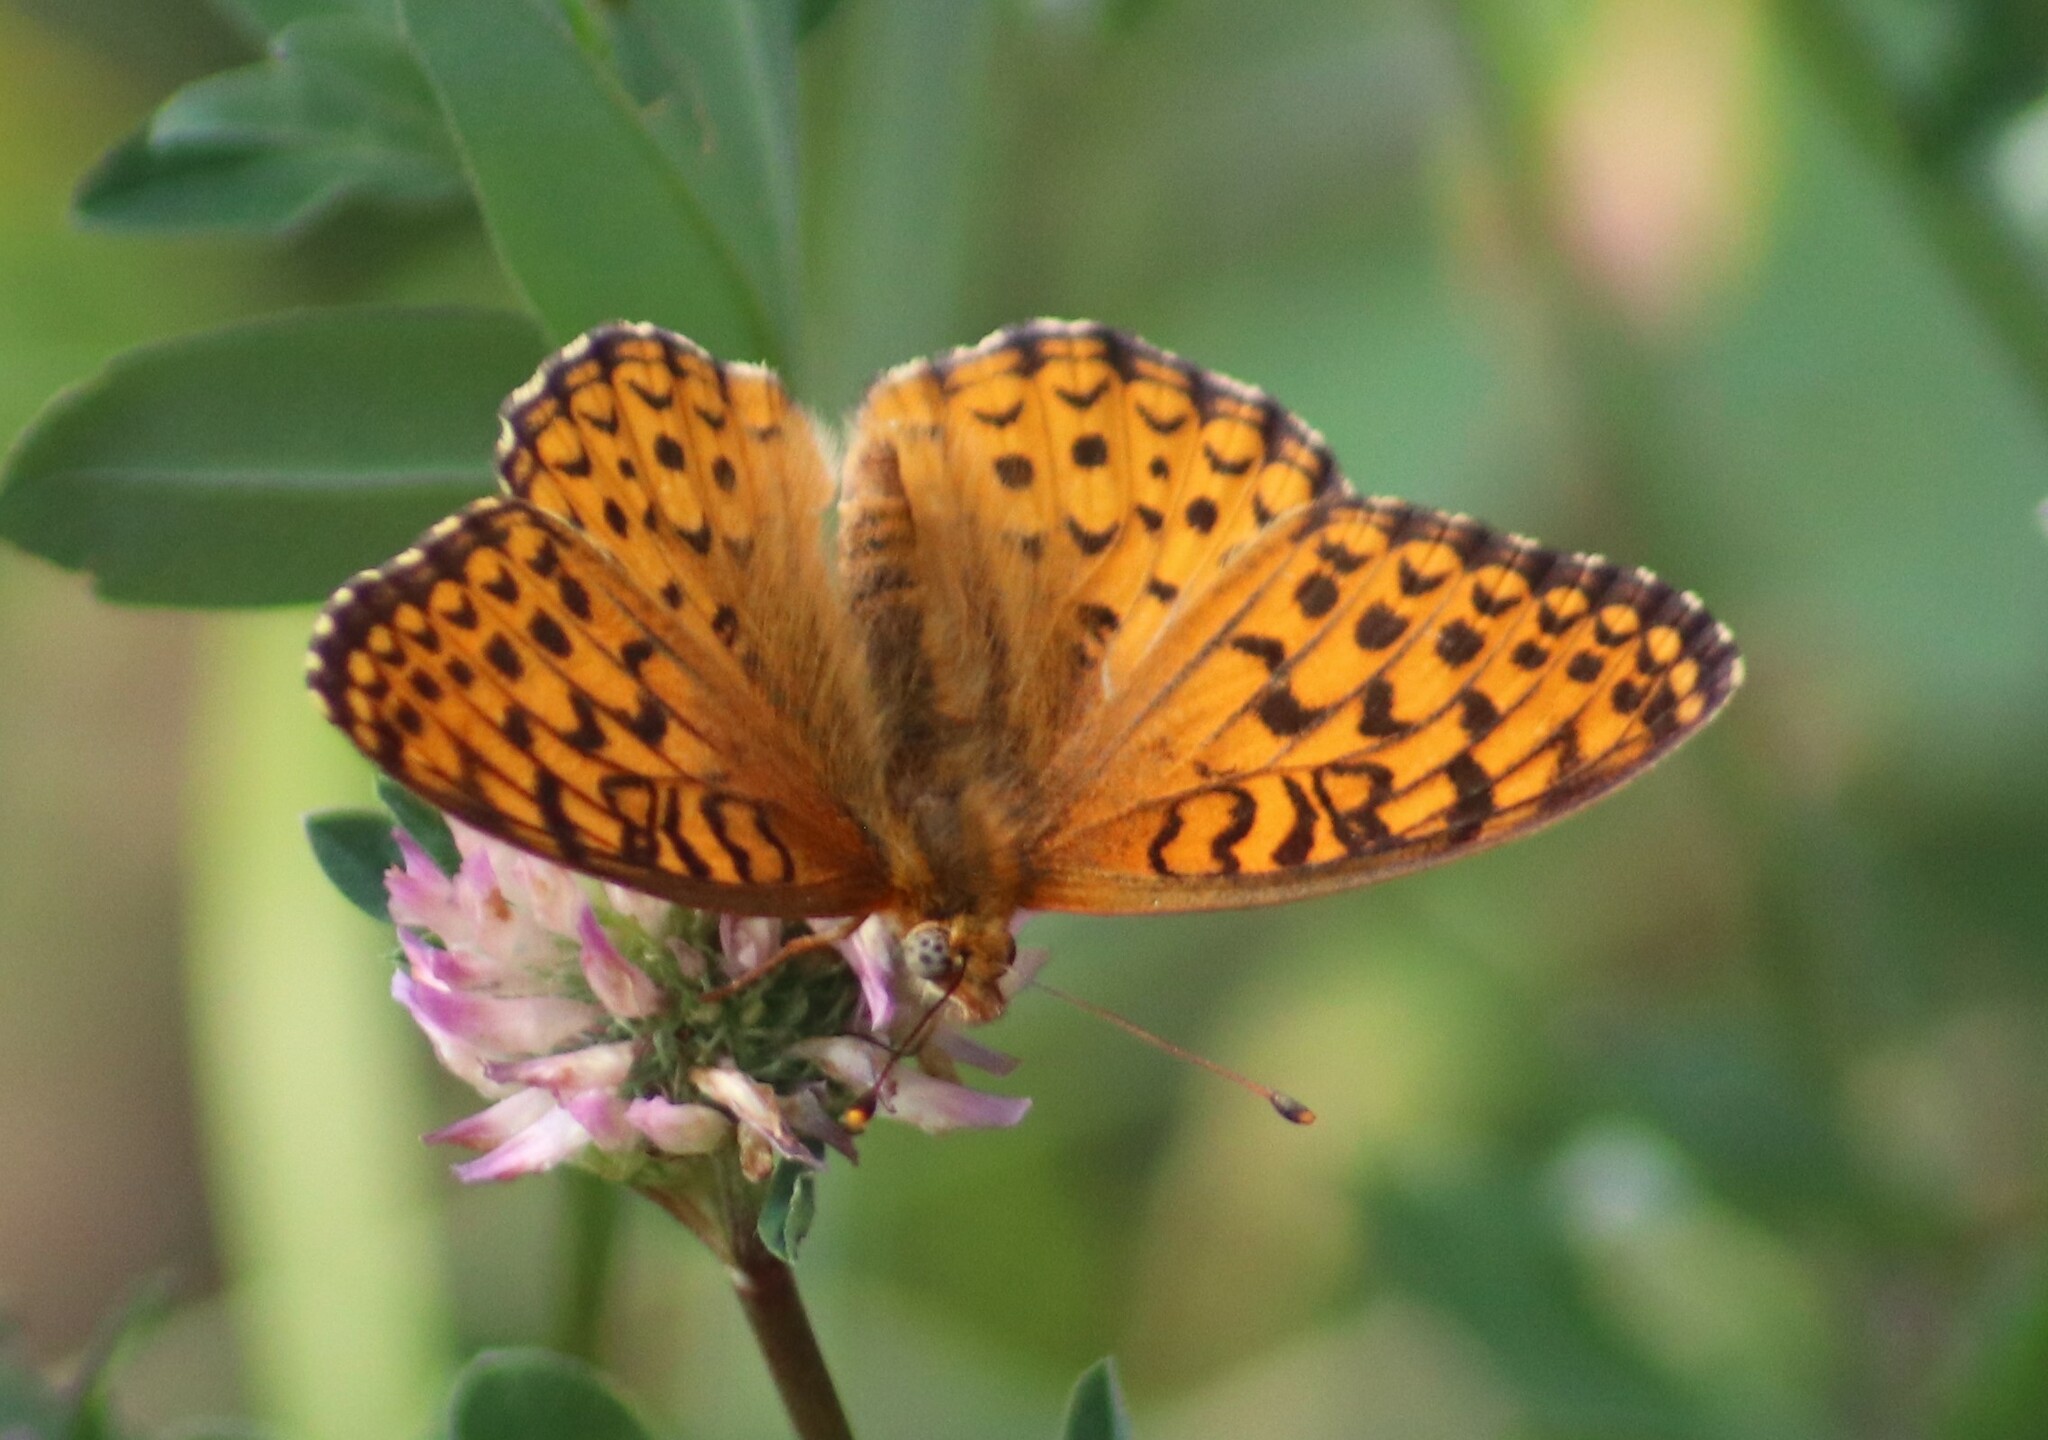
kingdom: Animalia
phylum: Arthropoda
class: Insecta
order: Lepidoptera
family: Nymphalidae
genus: Speyeria
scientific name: Speyeria atlantis
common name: Atlantis fritillary
